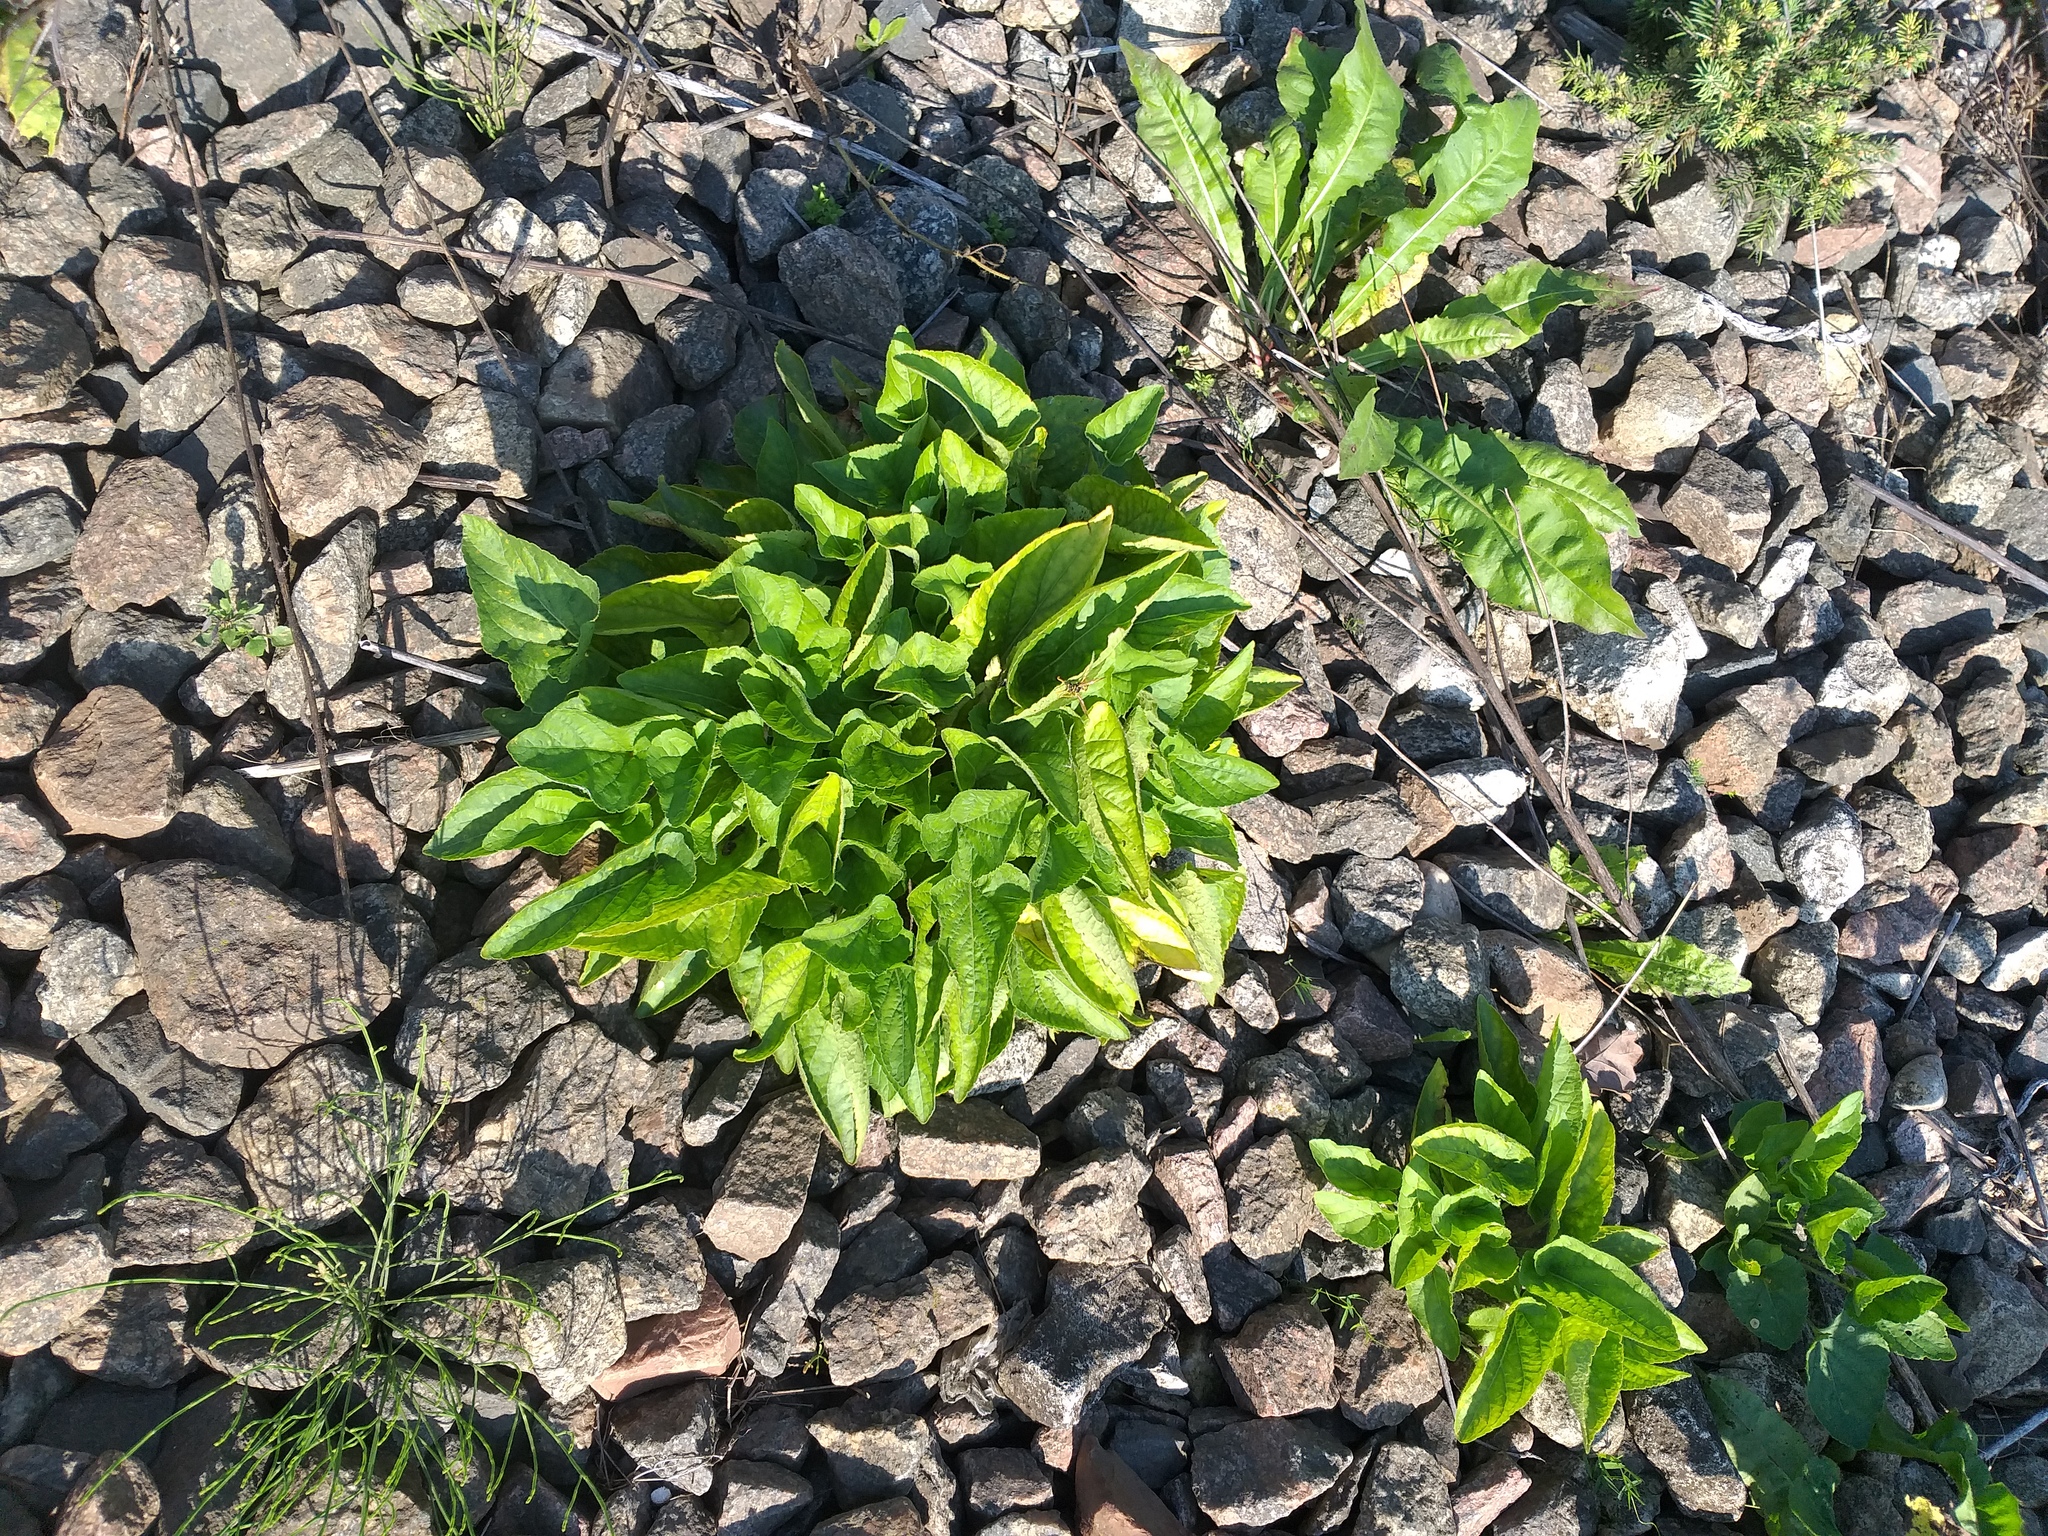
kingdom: Plantae
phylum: Tracheophyta
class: Magnoliopsida
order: Malpighiales
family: Violaceae
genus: Viola
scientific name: Viola hirta
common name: Hairy violet
